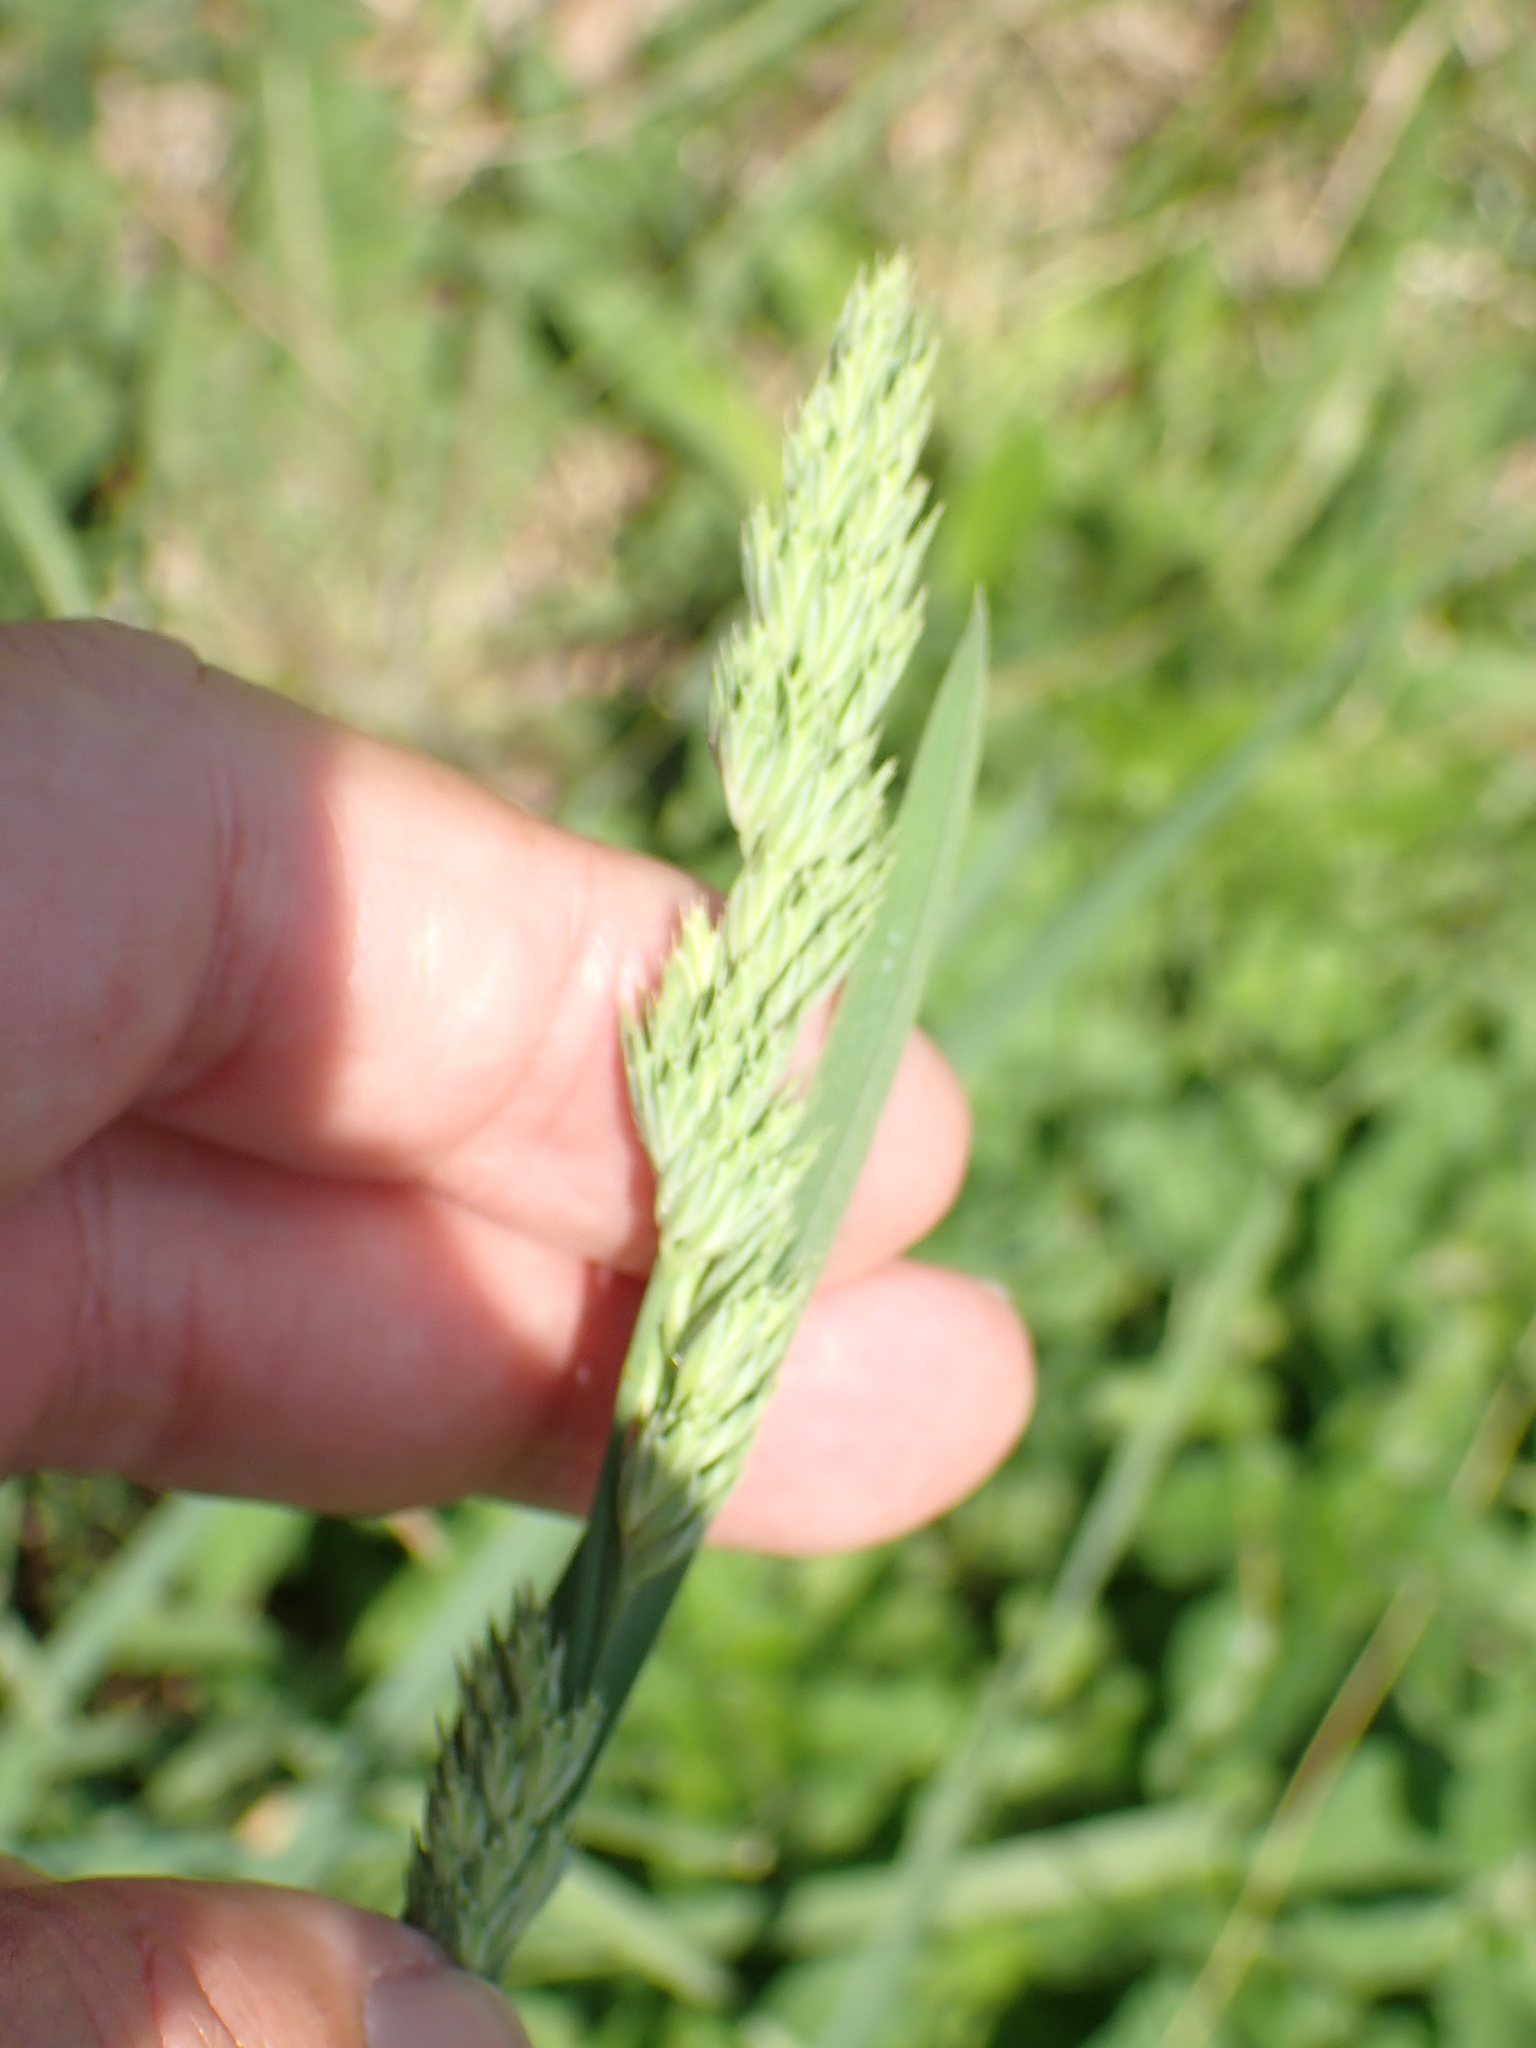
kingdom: Plantae
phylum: Tracheophyta
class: Liliopsida
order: Poales
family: Poaceae
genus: Dactylis
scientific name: Dactylis glomerata
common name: Orchardgrass
